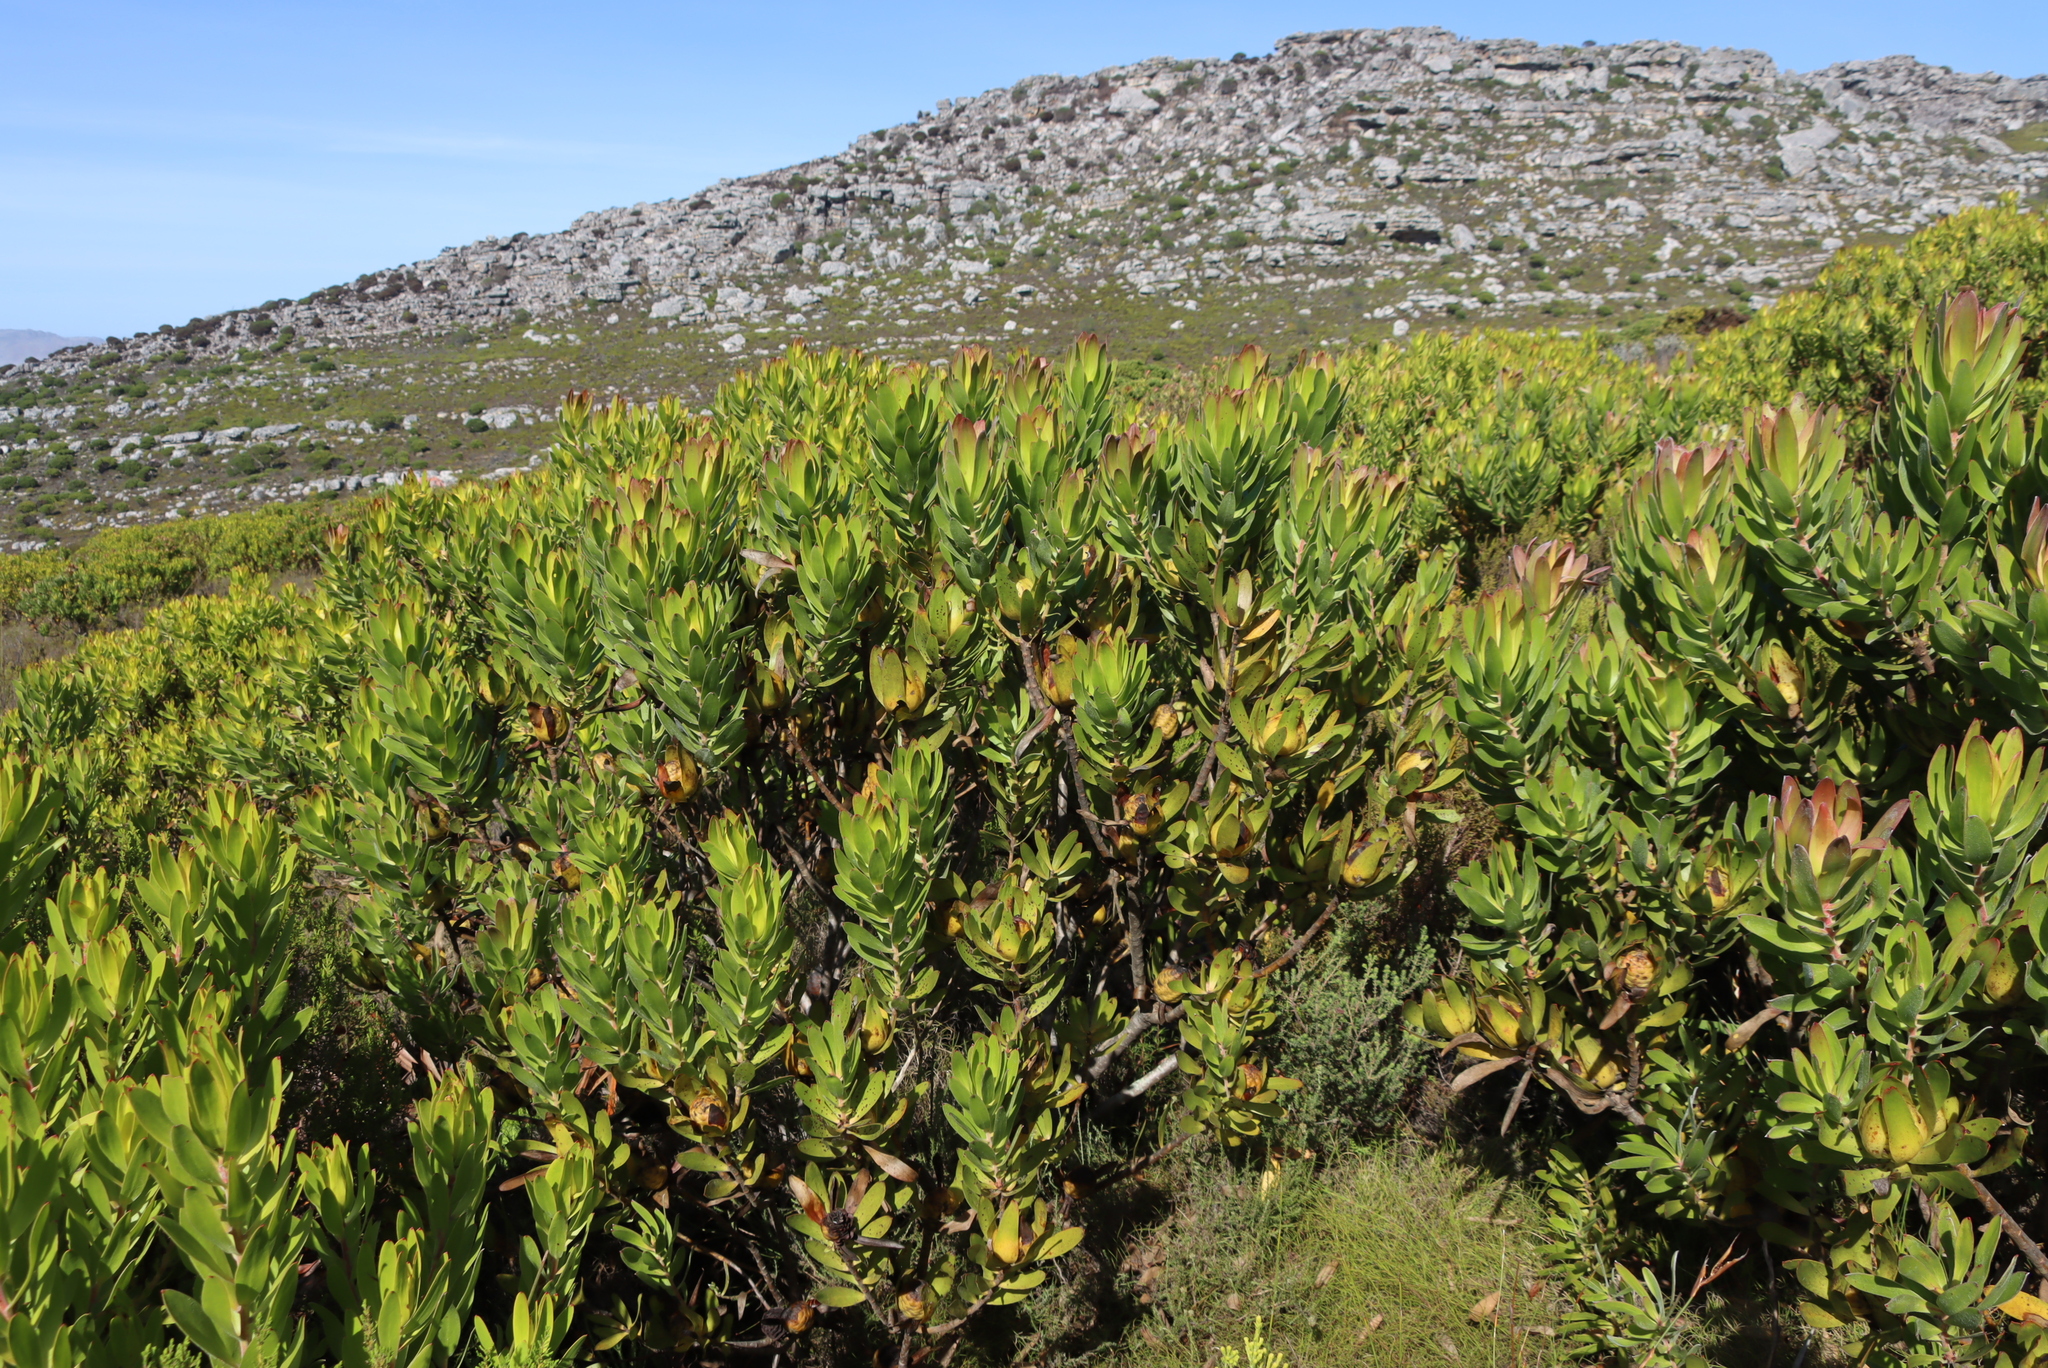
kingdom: Plantae
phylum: Tracheophyta
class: Magnoliopsida
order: Proteales
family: Proteaceae
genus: Leucadendron
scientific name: Leucadendron laureolum
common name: Golden sunshinebush
